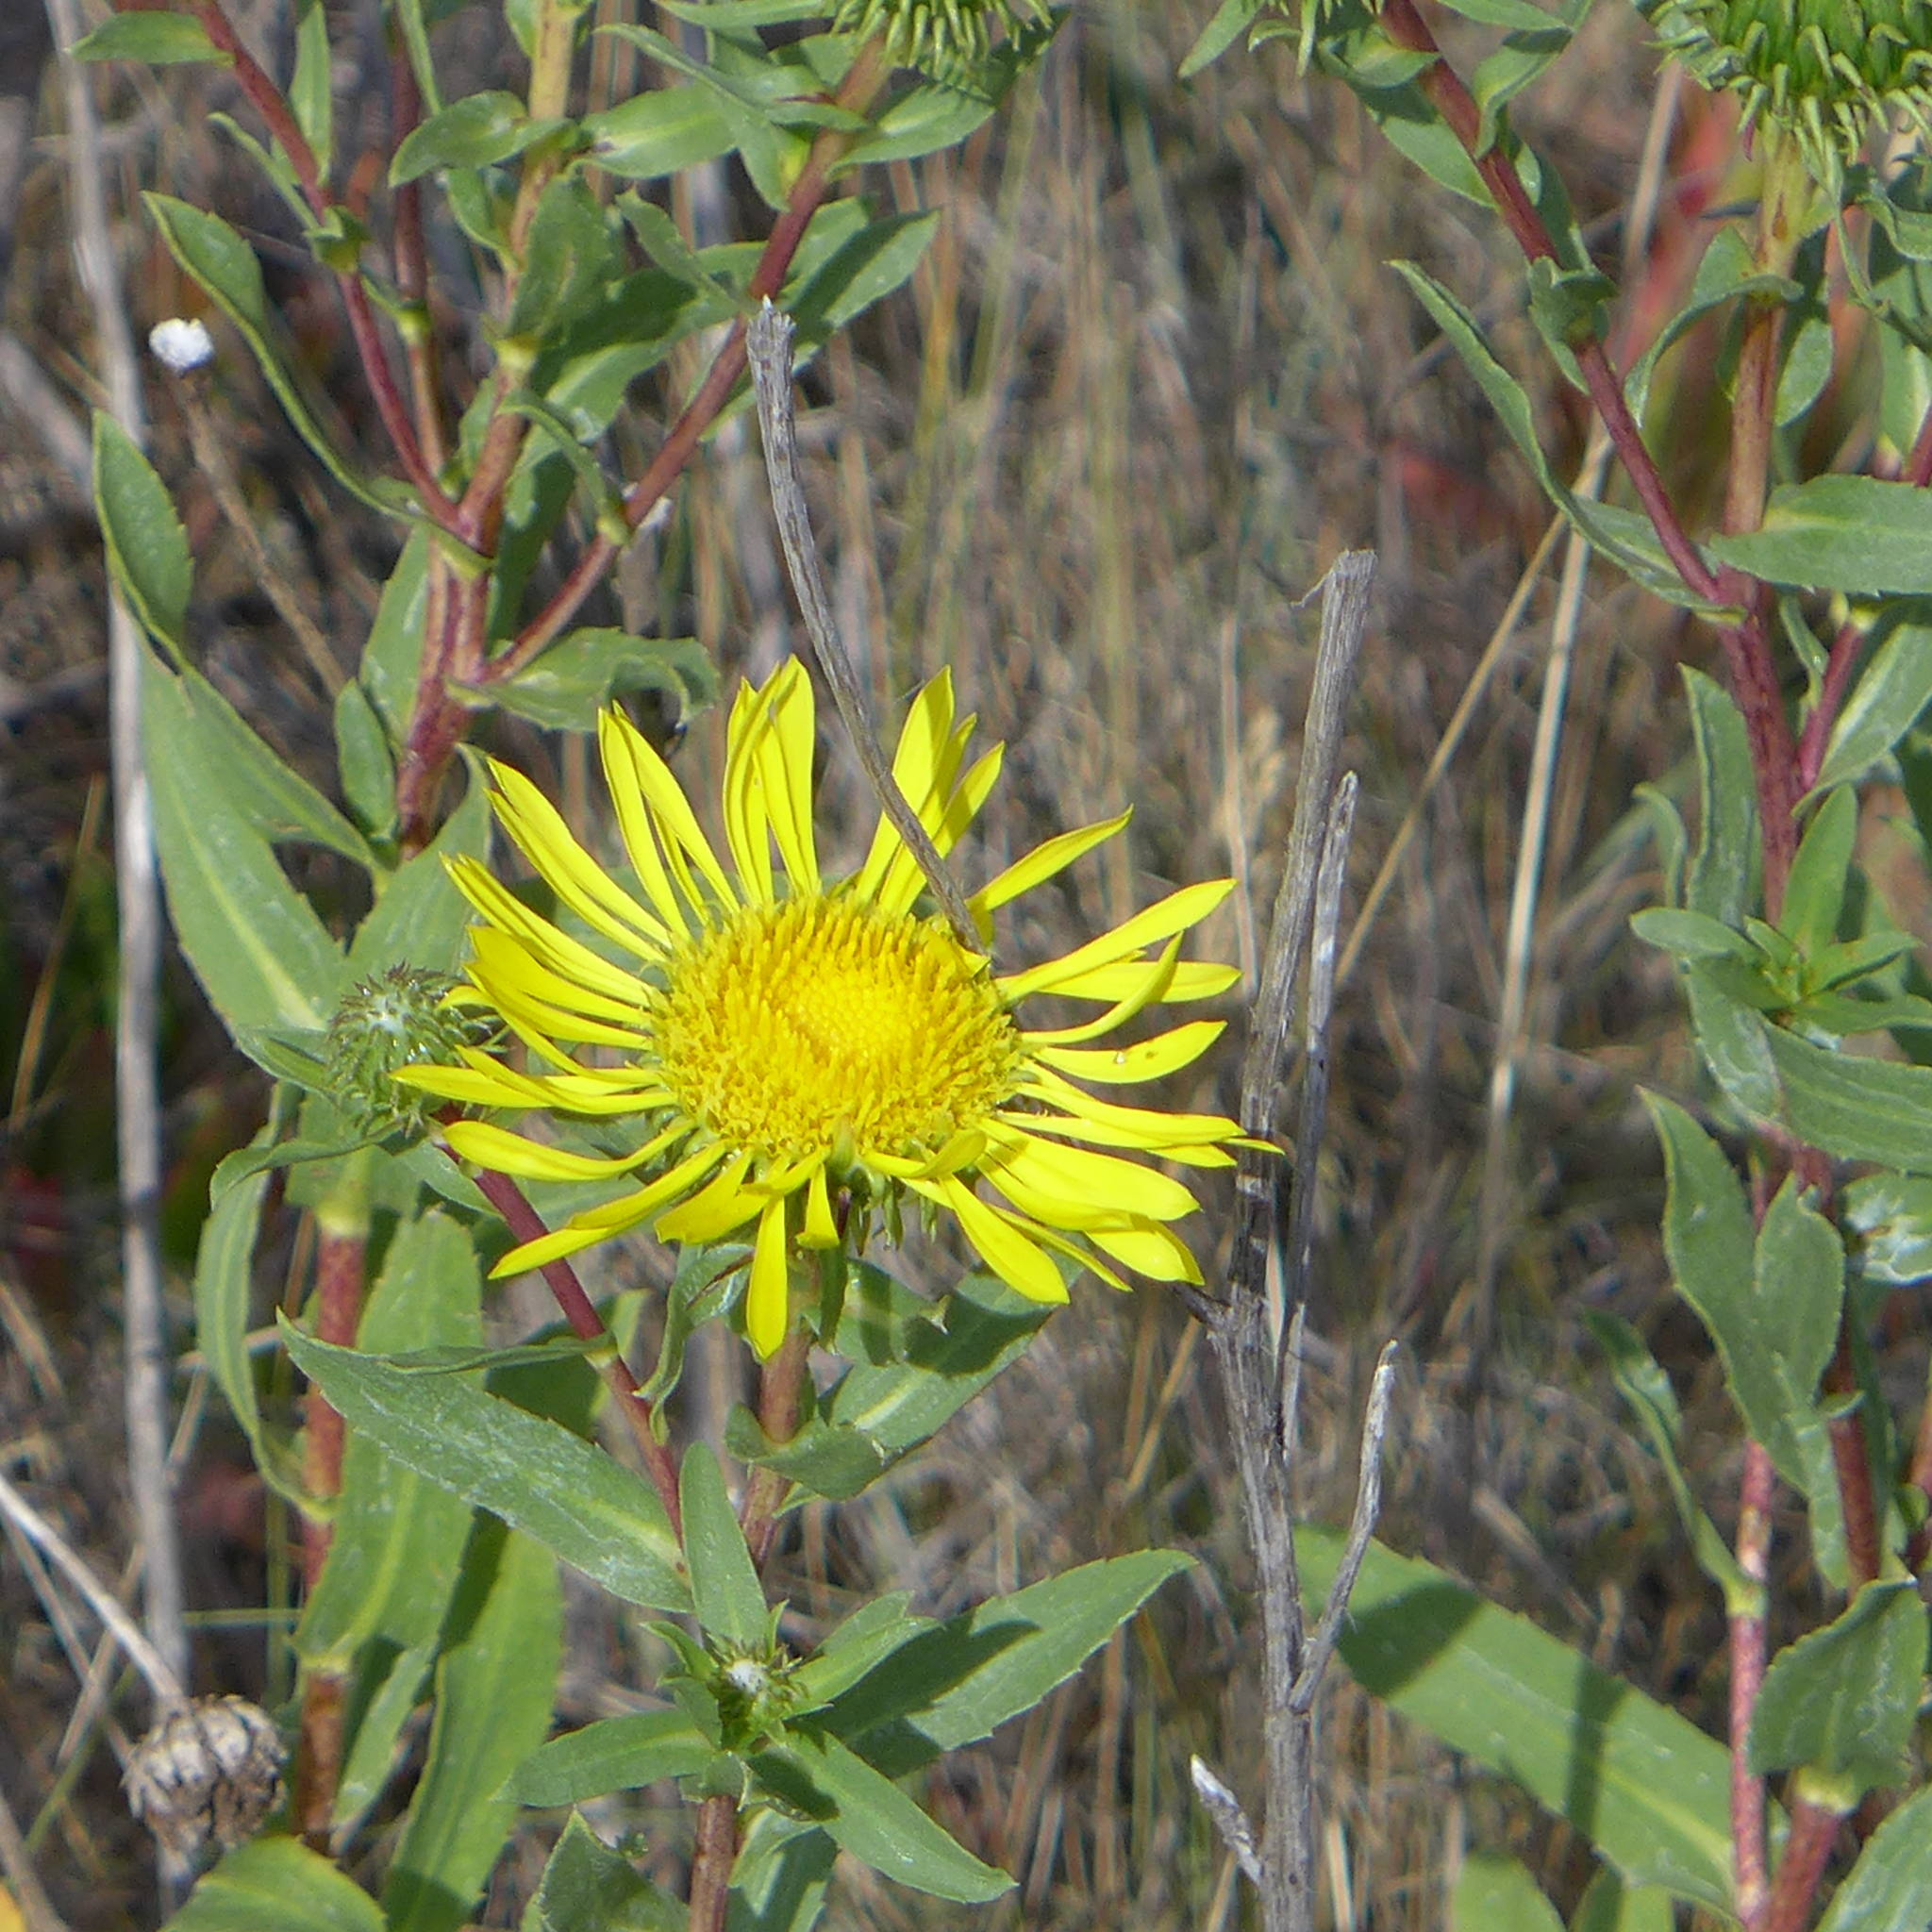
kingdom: Plantae
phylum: Tracheophyta
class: Magnoliopsida
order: Asterales
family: Asteraceae
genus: Grindelia
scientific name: Grindelia hirsutula
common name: Hairy gumweed
